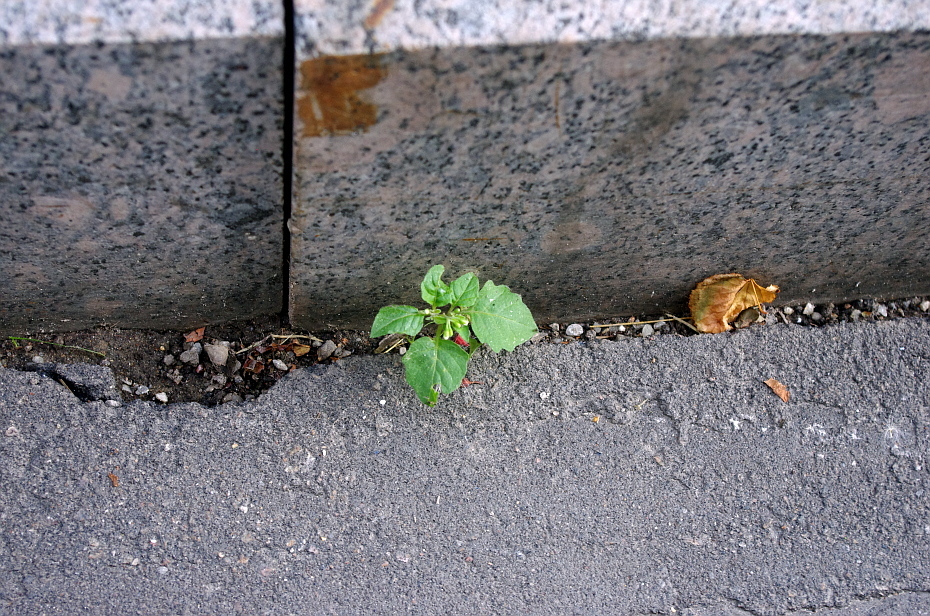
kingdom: Plantae
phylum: Tracheophyta
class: Magnoliopsida
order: Solanales
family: Solanaceae
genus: Solanum
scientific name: Solanum nigrum
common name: Black nightshade
